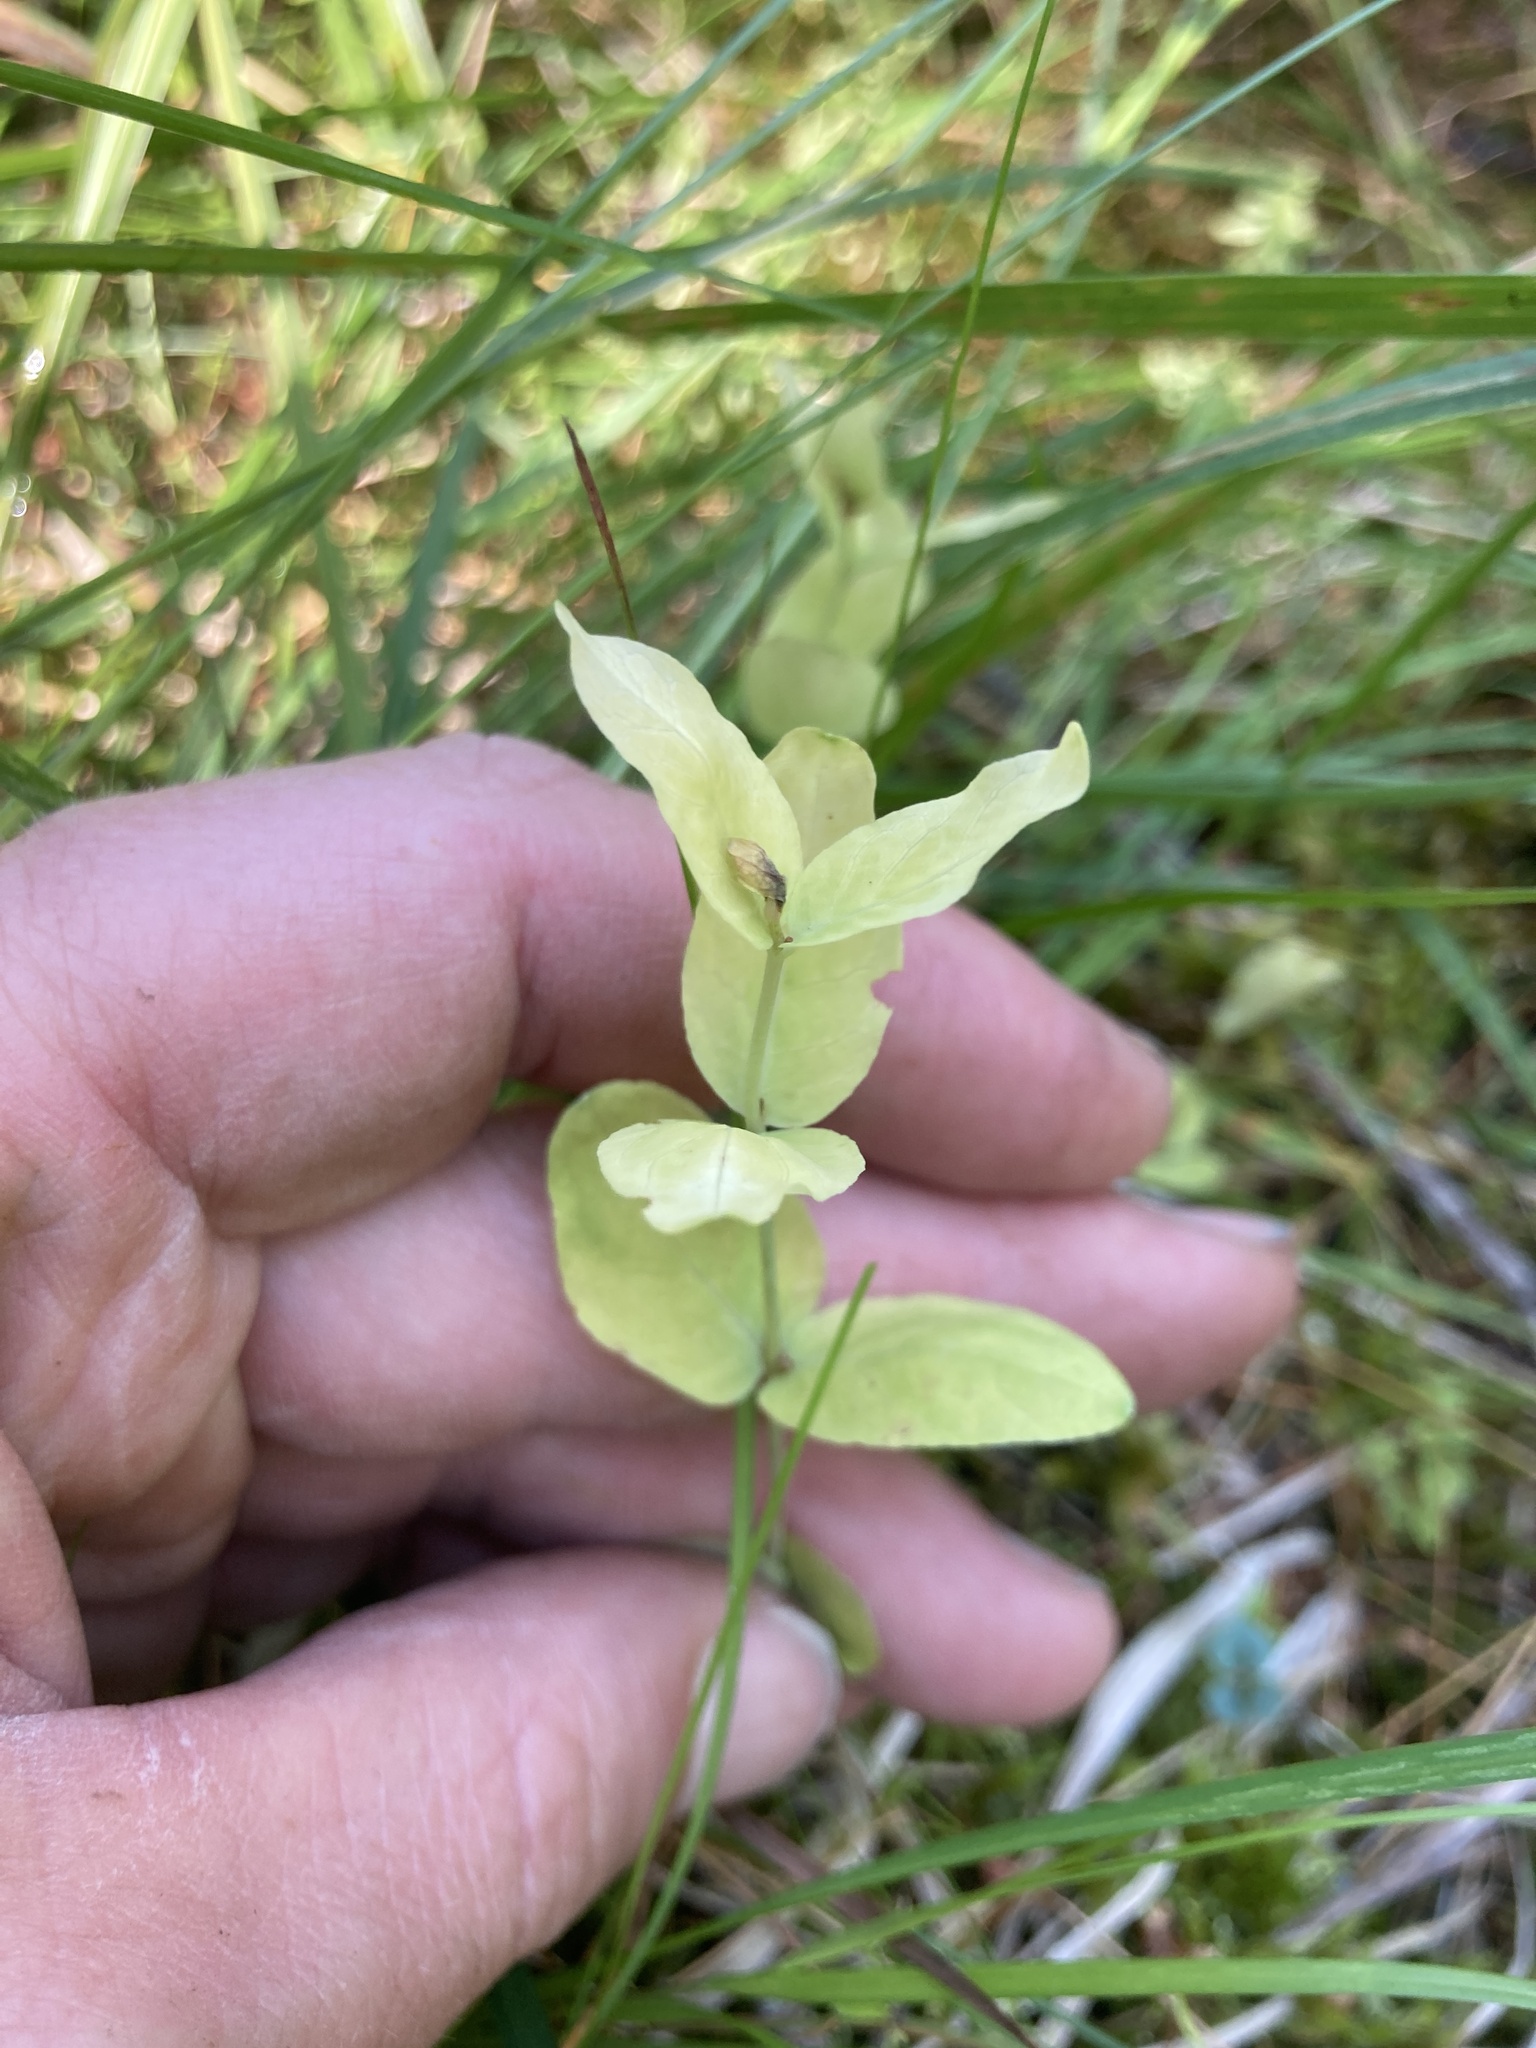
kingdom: Plantae
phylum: Tracheophyta
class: Magnoliopsida
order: Malpighiales
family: Hypericaceae
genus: Triadenum
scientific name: Triadenum fraseri
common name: Fraser's marsh st. johnswort
